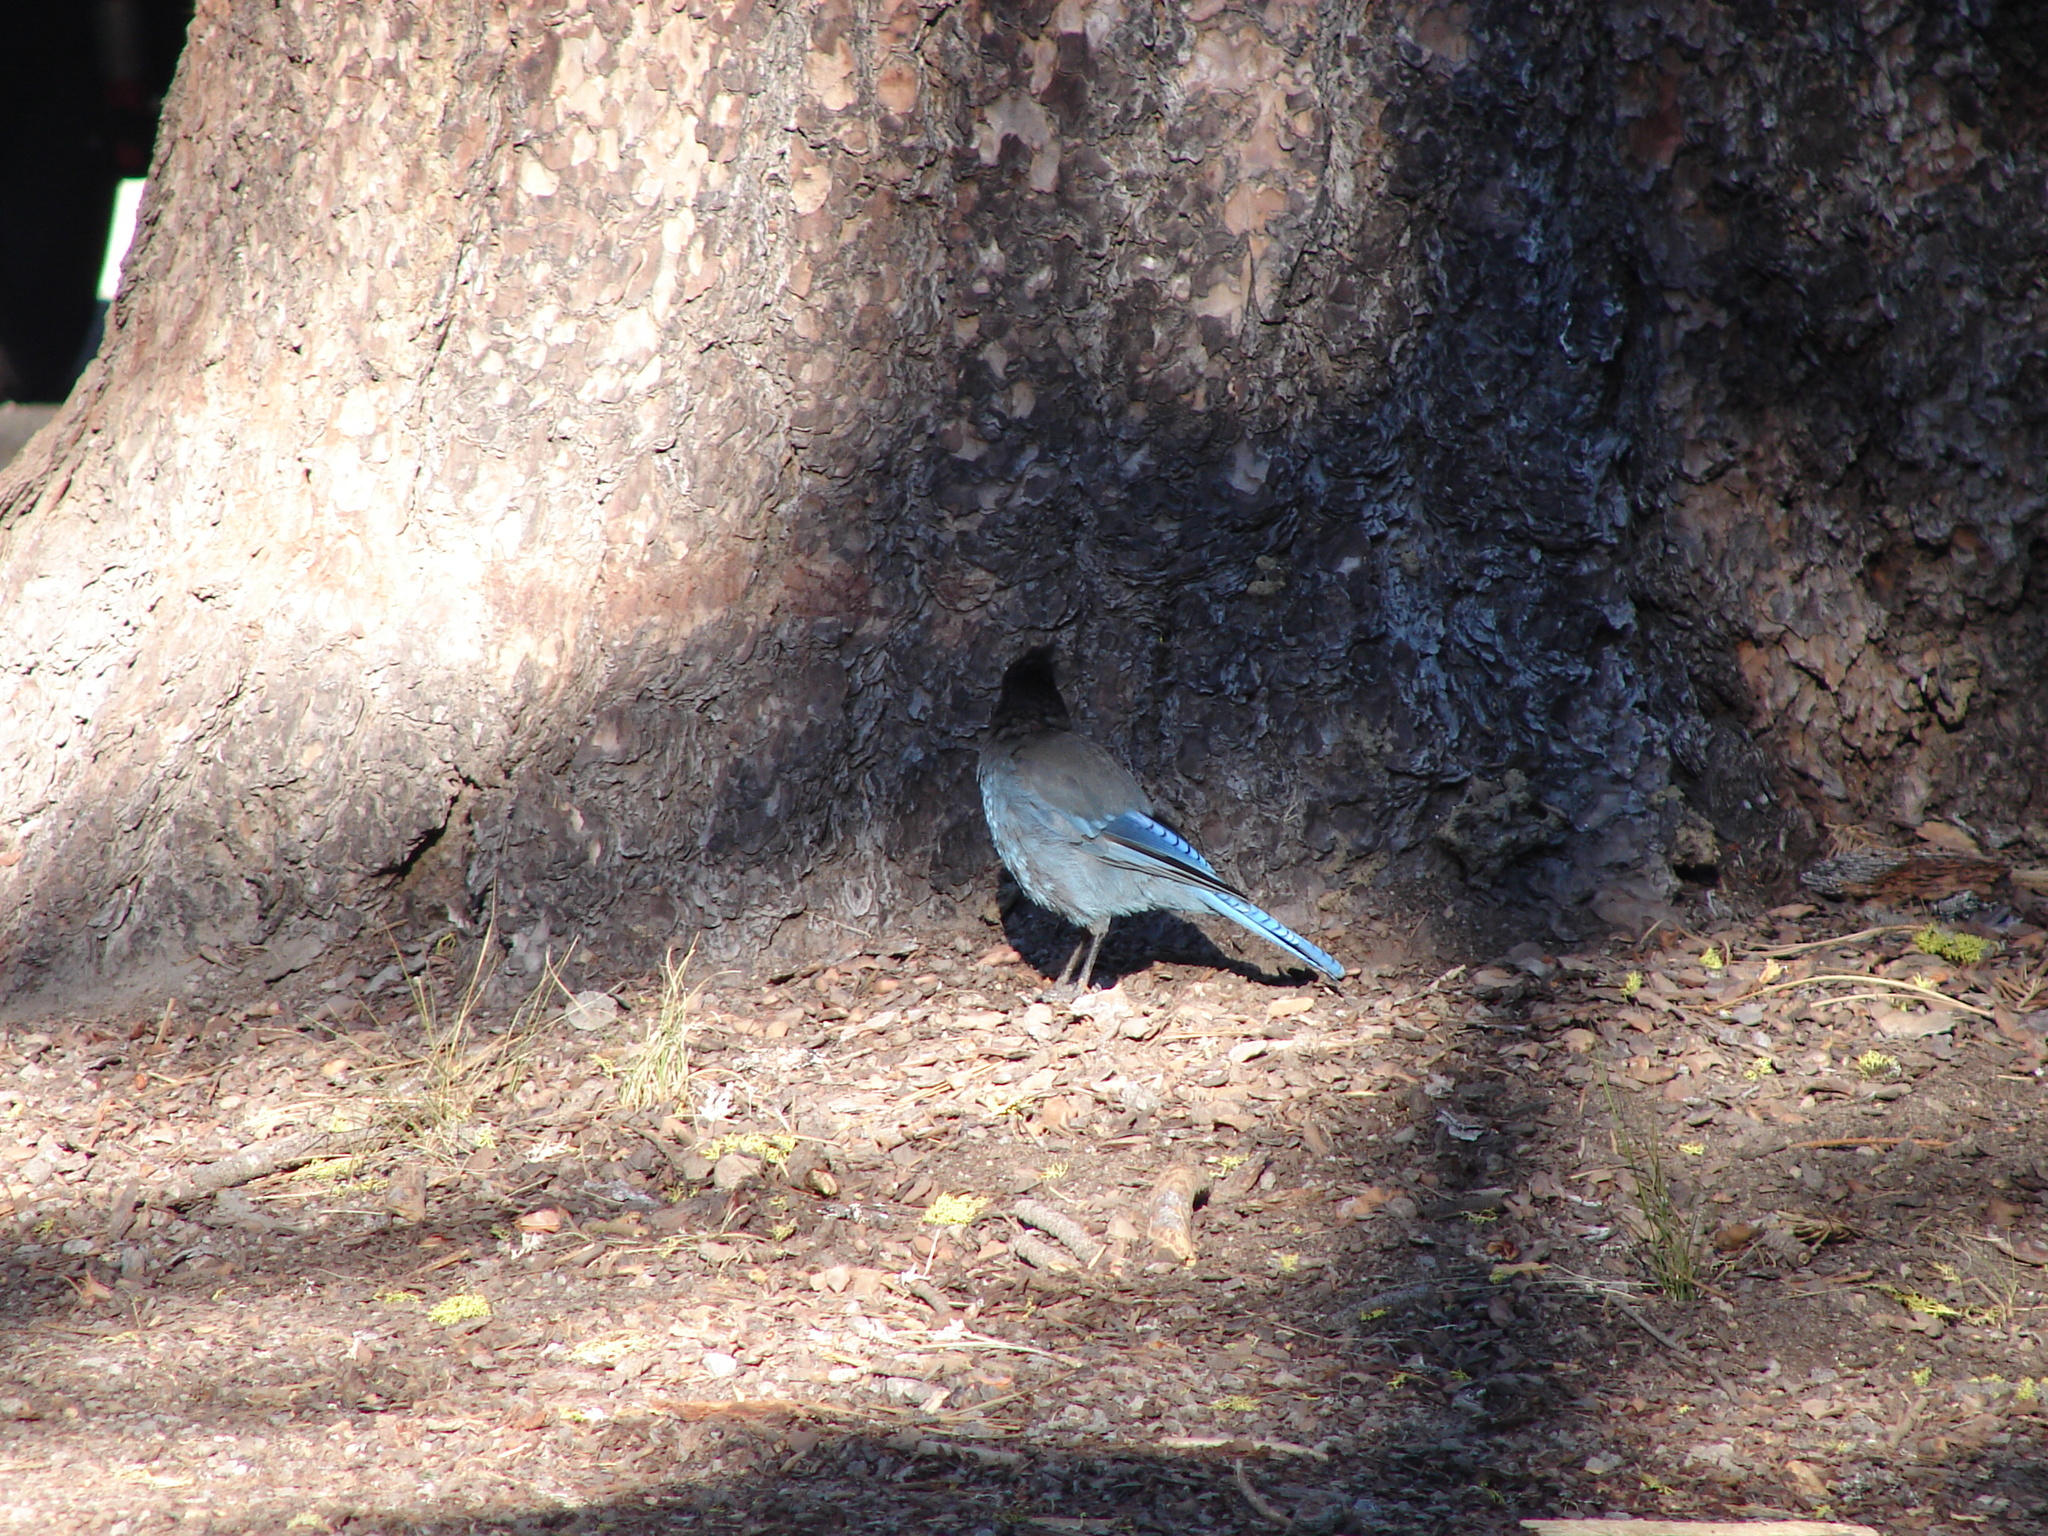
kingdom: Animalia
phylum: Chordata
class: Aves
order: Passeriformes
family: Corvidae
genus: Cyanocitta
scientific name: Cyanocitta stelleri
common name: Steller's jay
